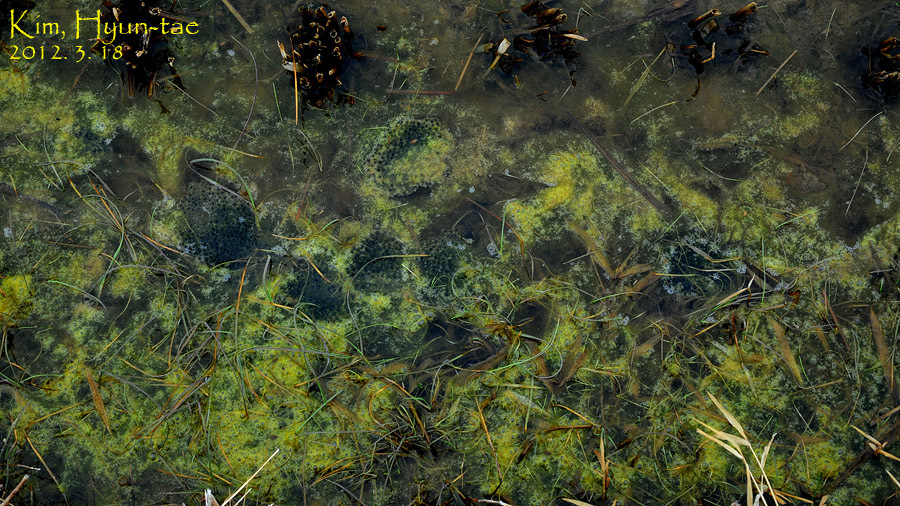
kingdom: Animalia
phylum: Chordata
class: Amphibia
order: Anura
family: Ranidae
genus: Rana
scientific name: Rana coreana
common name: Korean brown frog
